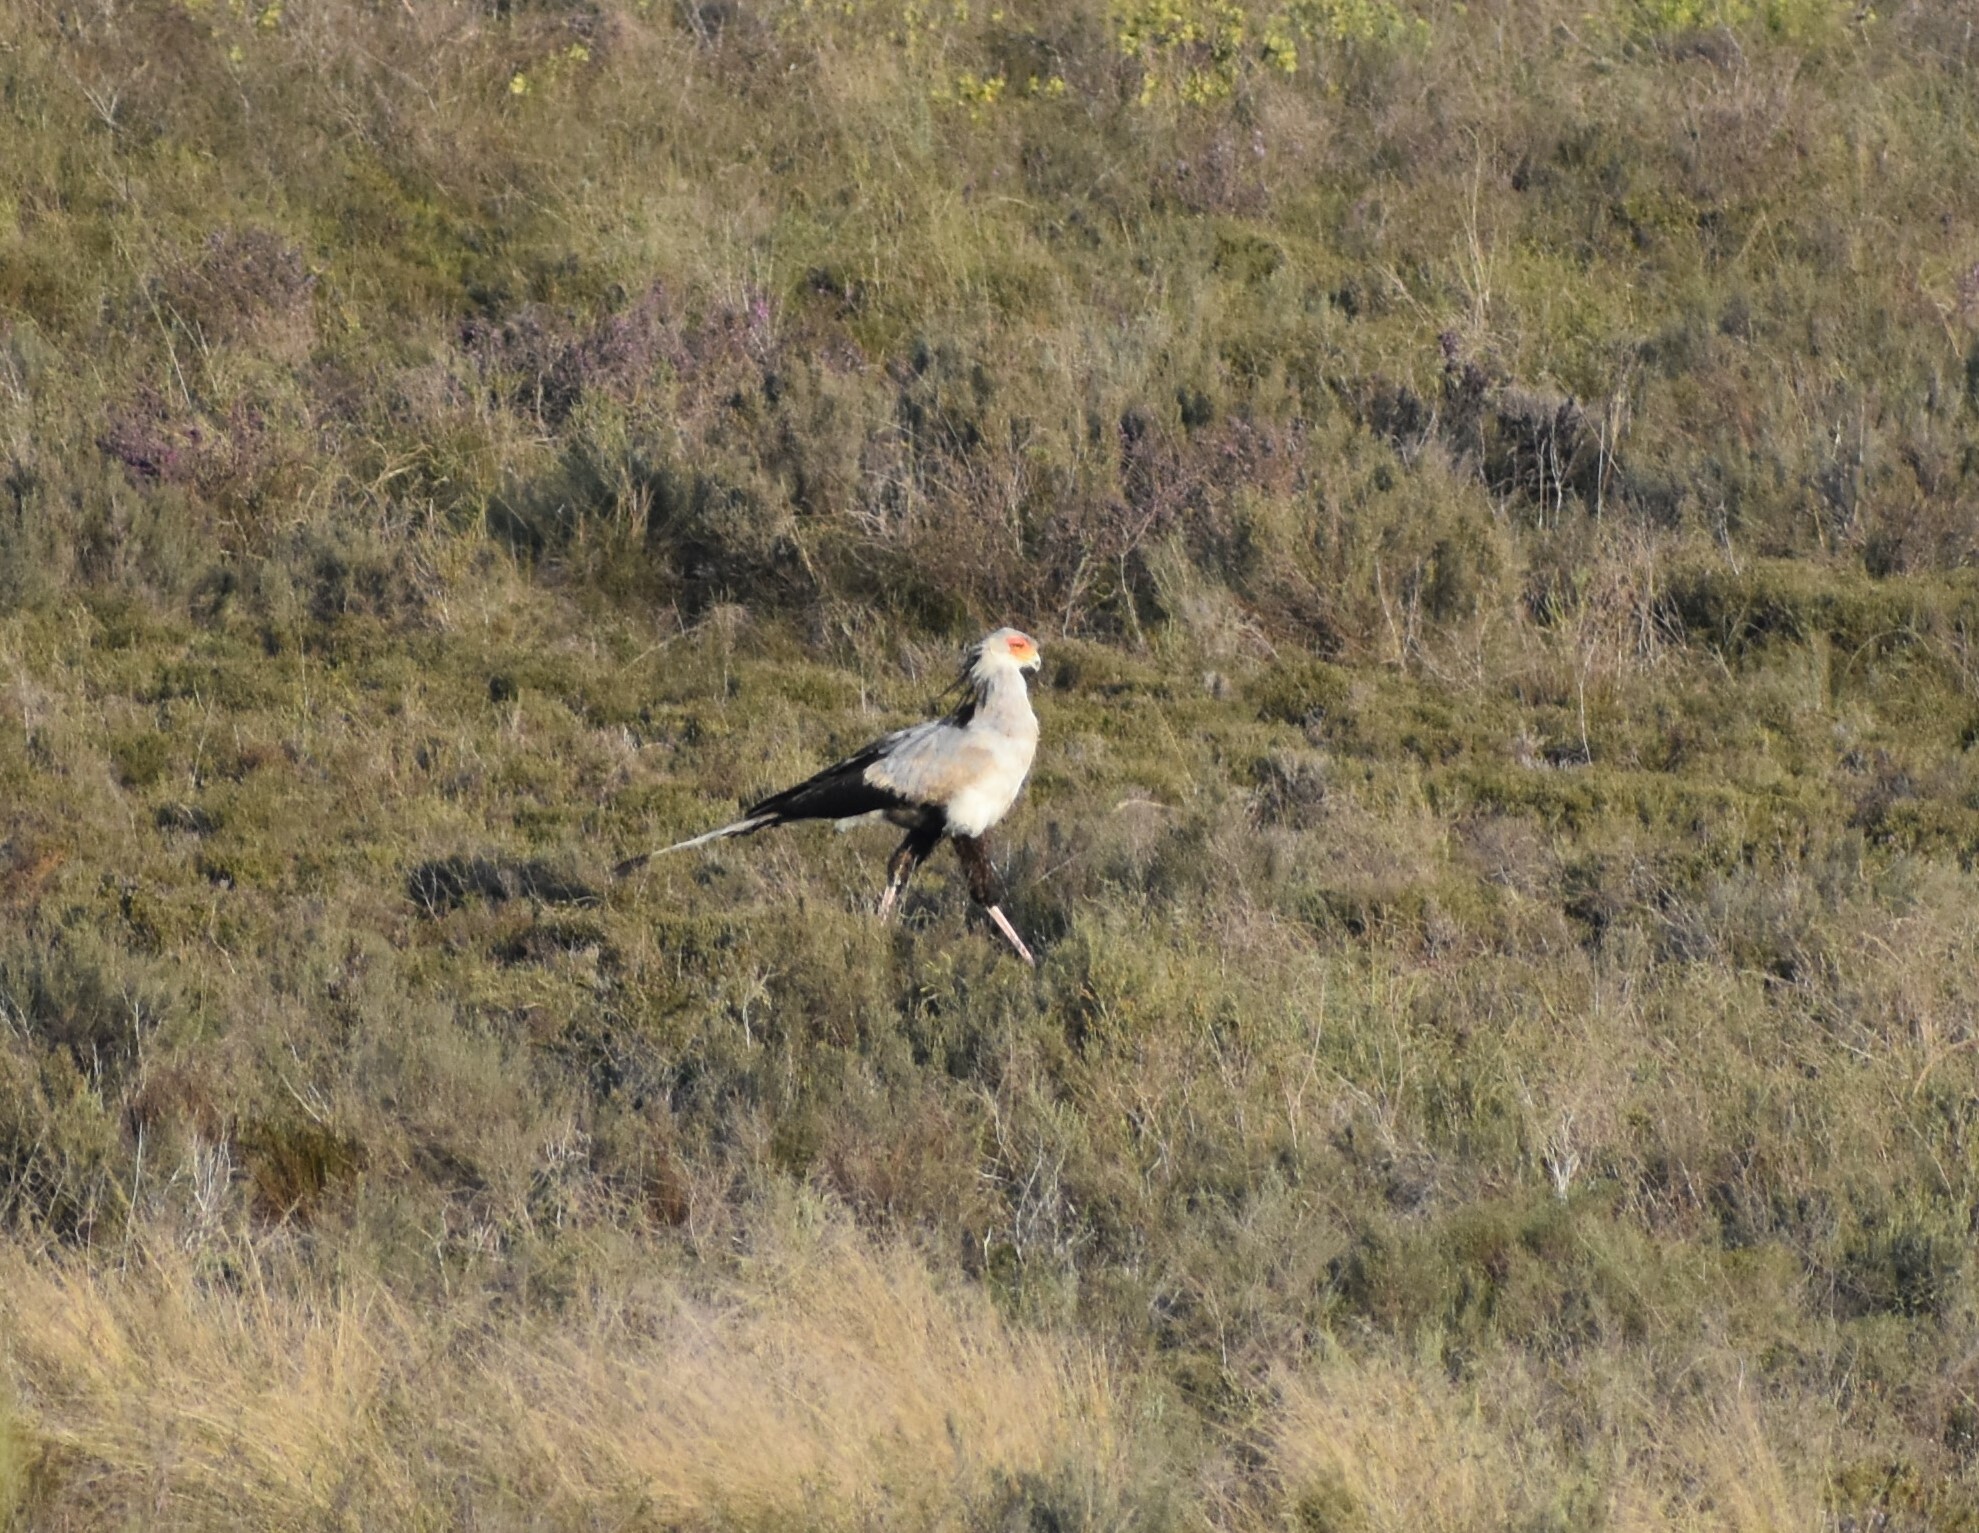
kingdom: Animalia
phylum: Chordata
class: Aves
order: Accipitriformes
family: Sagittariidae
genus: Sagittarius
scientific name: Sagittarius serpentarius
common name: Secretarybird
